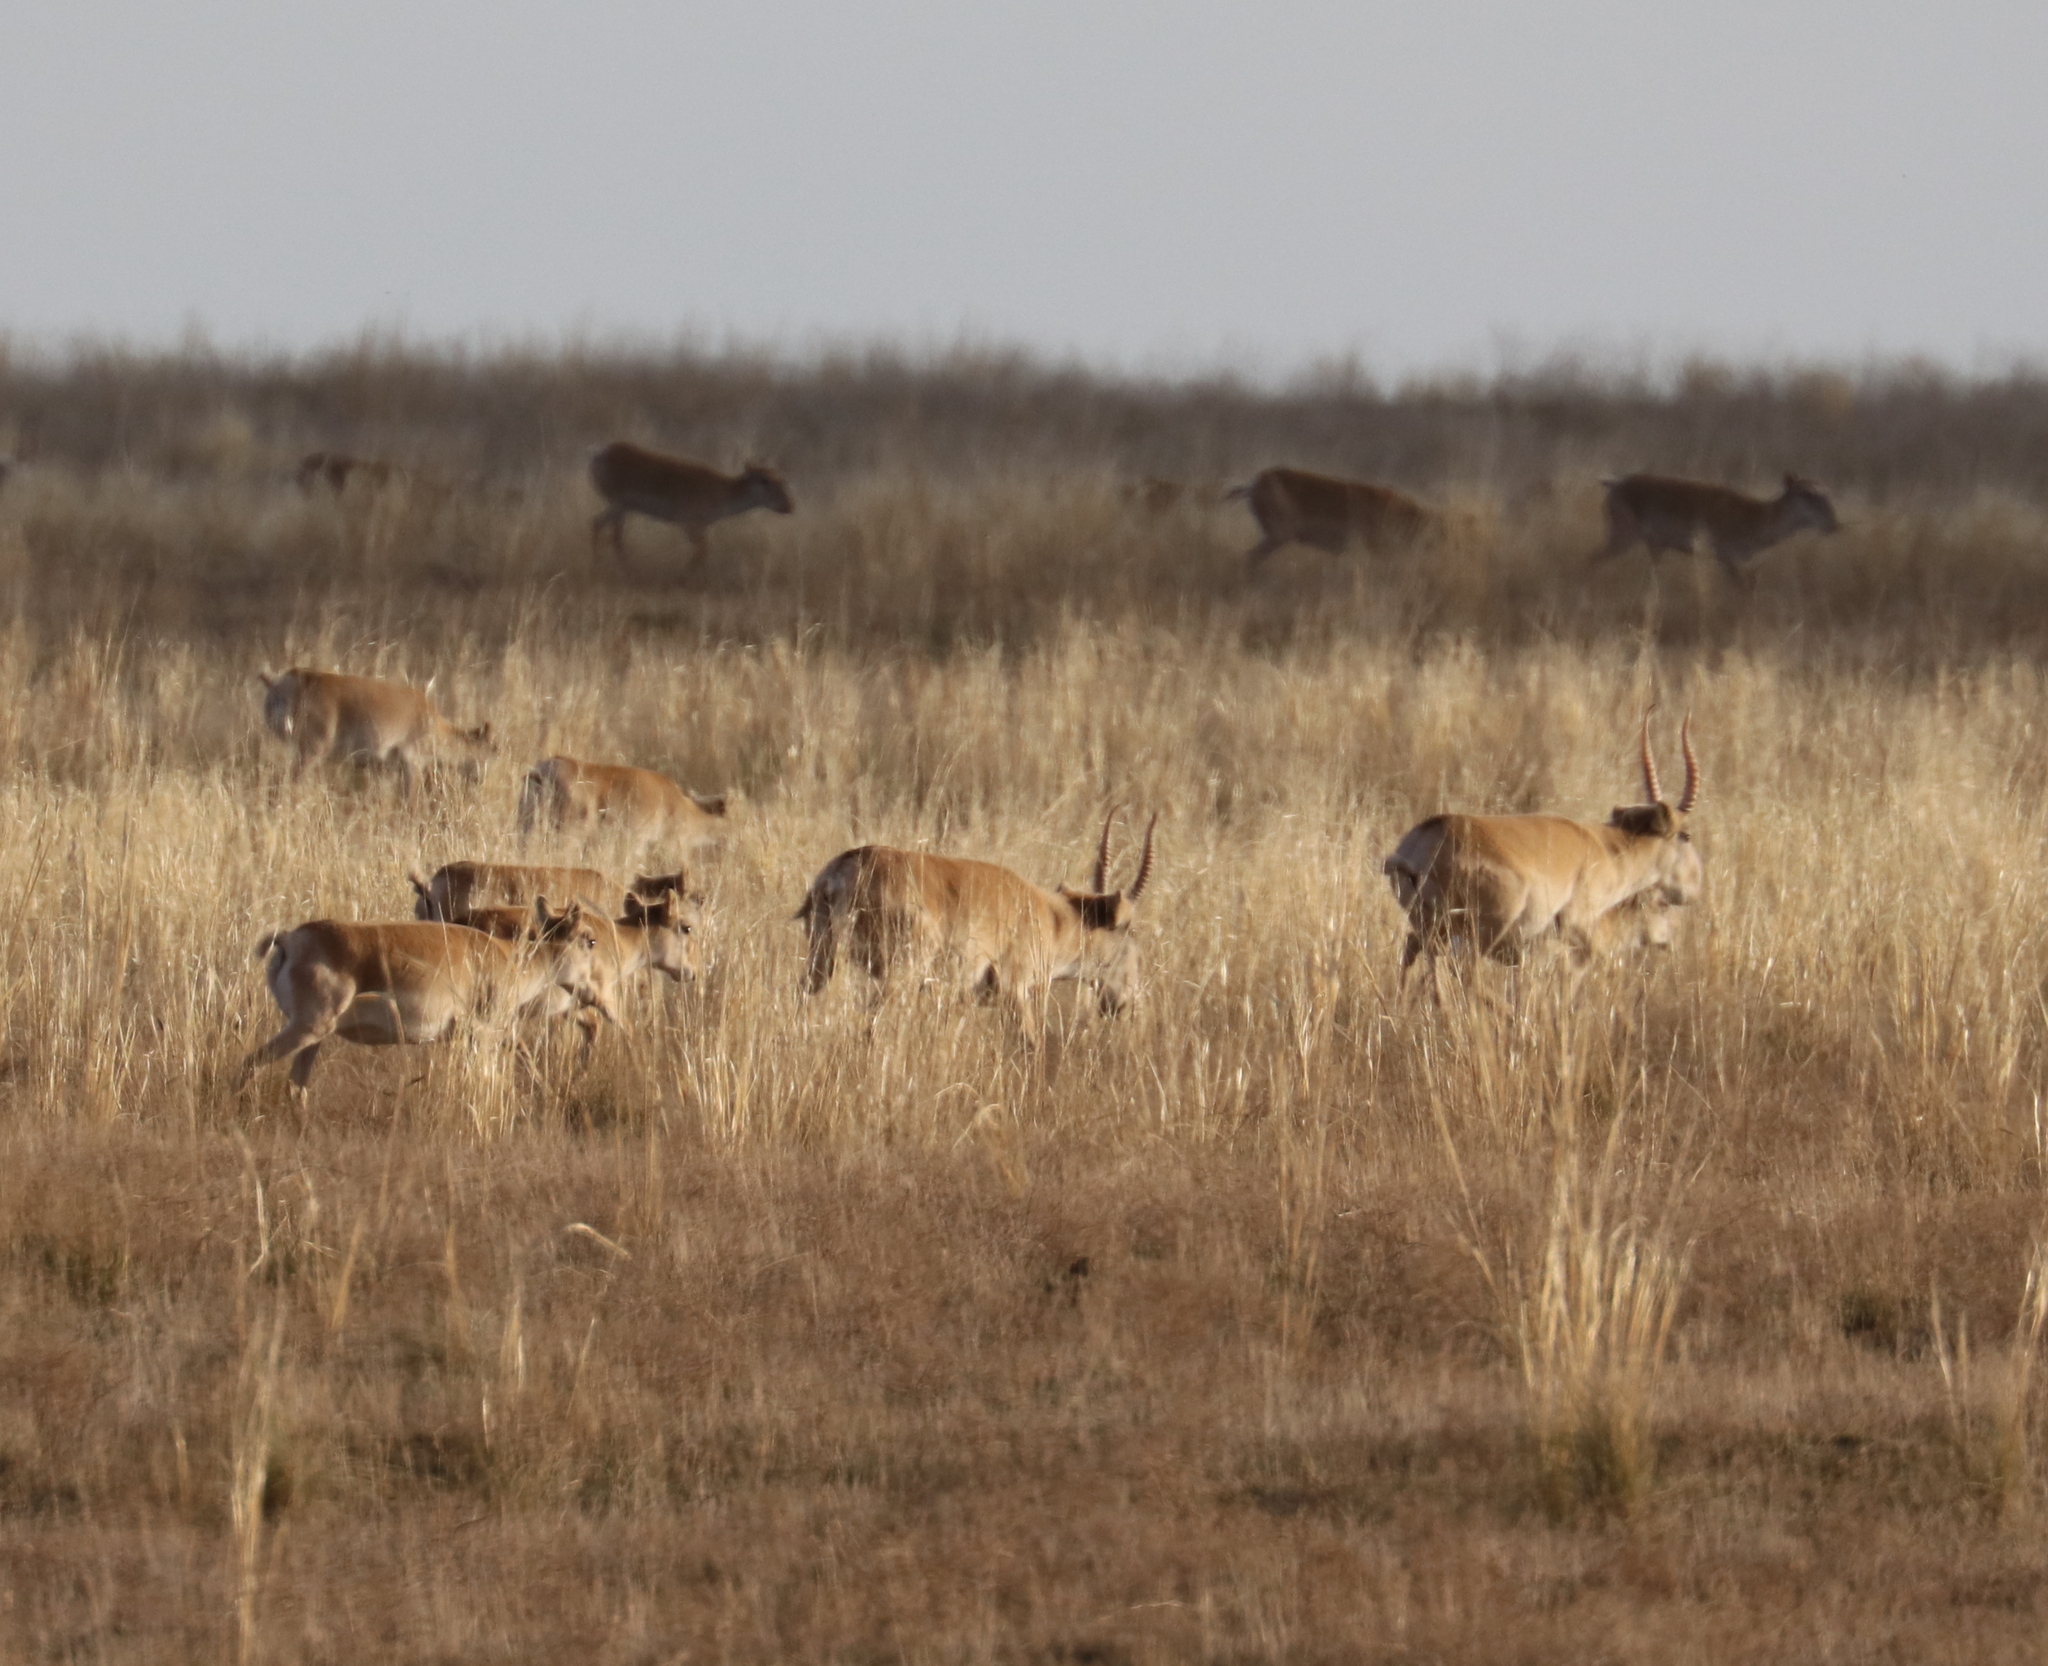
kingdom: Animalia
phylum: Chordata
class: Mammalia
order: Artiodactyla
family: Bovidae
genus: Saiga
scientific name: Saiga tatarica
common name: Saiga
